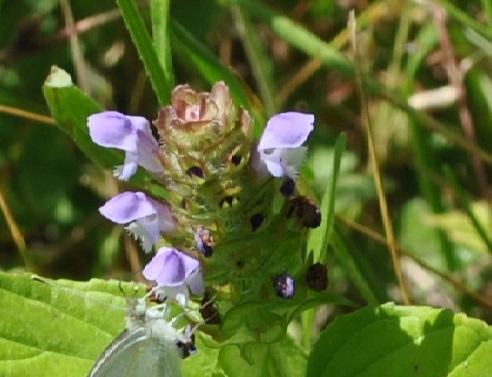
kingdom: Plantae
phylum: Tracheophyta
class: Magnoliopsida
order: Lamiales
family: Lamiaceae
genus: Prunella
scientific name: Prunella vulgaris
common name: Heal-all
